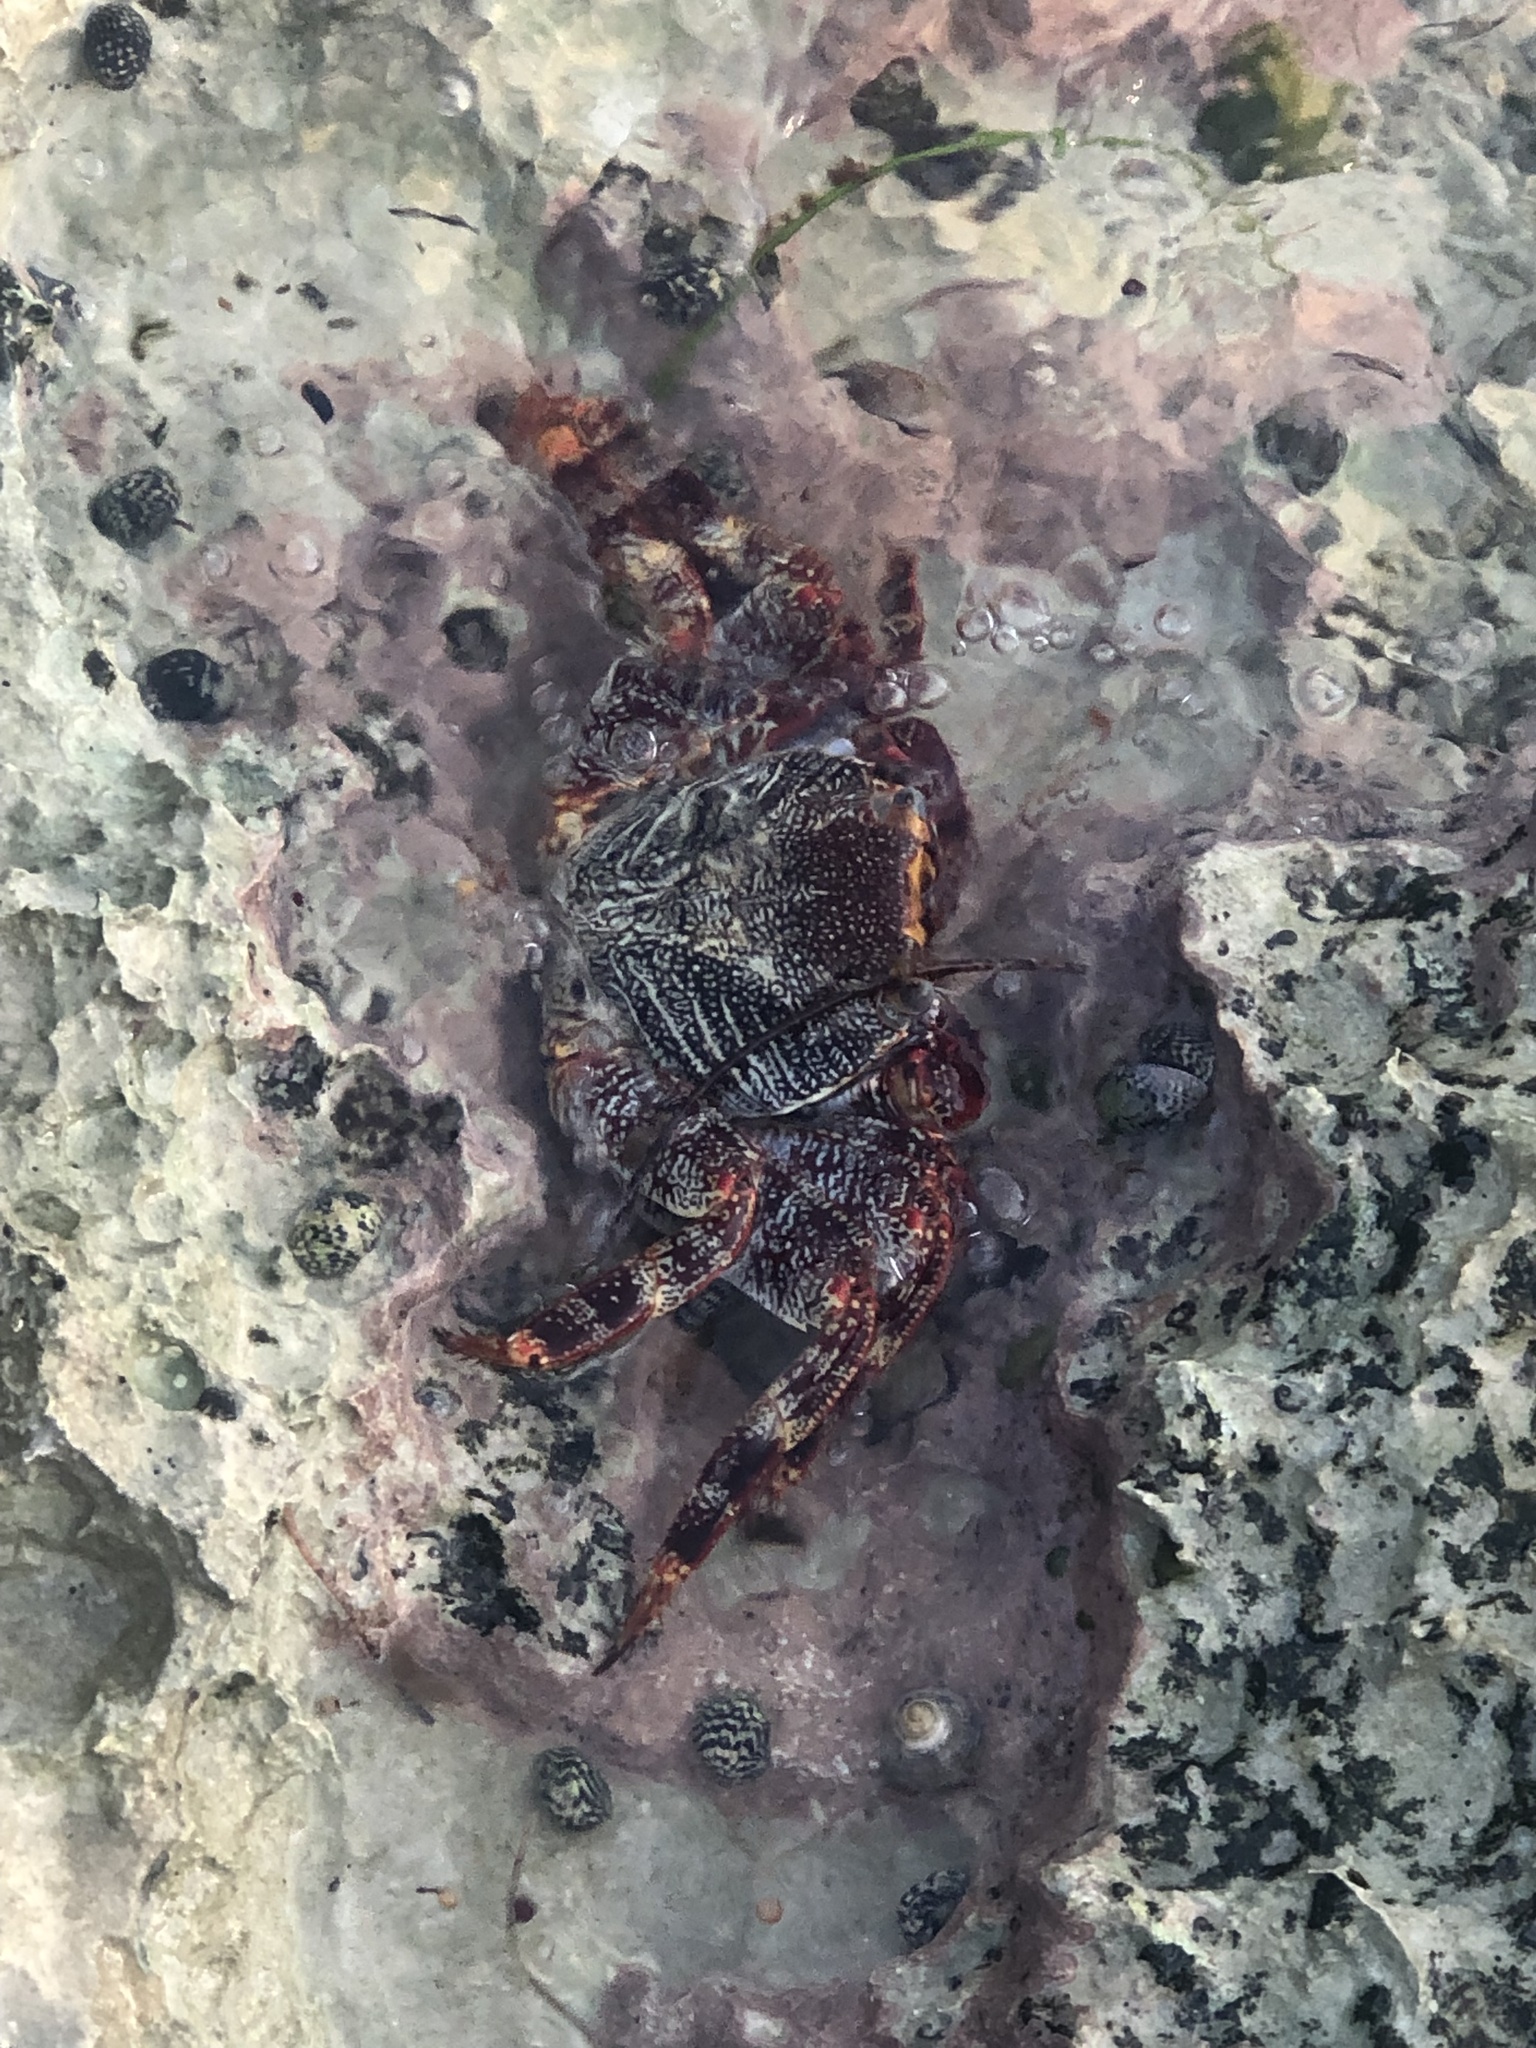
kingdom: Animalia
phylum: Arthropoda
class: Malacostraca
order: Decapoda
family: Grapsidae
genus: Grapsus
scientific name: Grapsus grapsus
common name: Sally lightfoot
